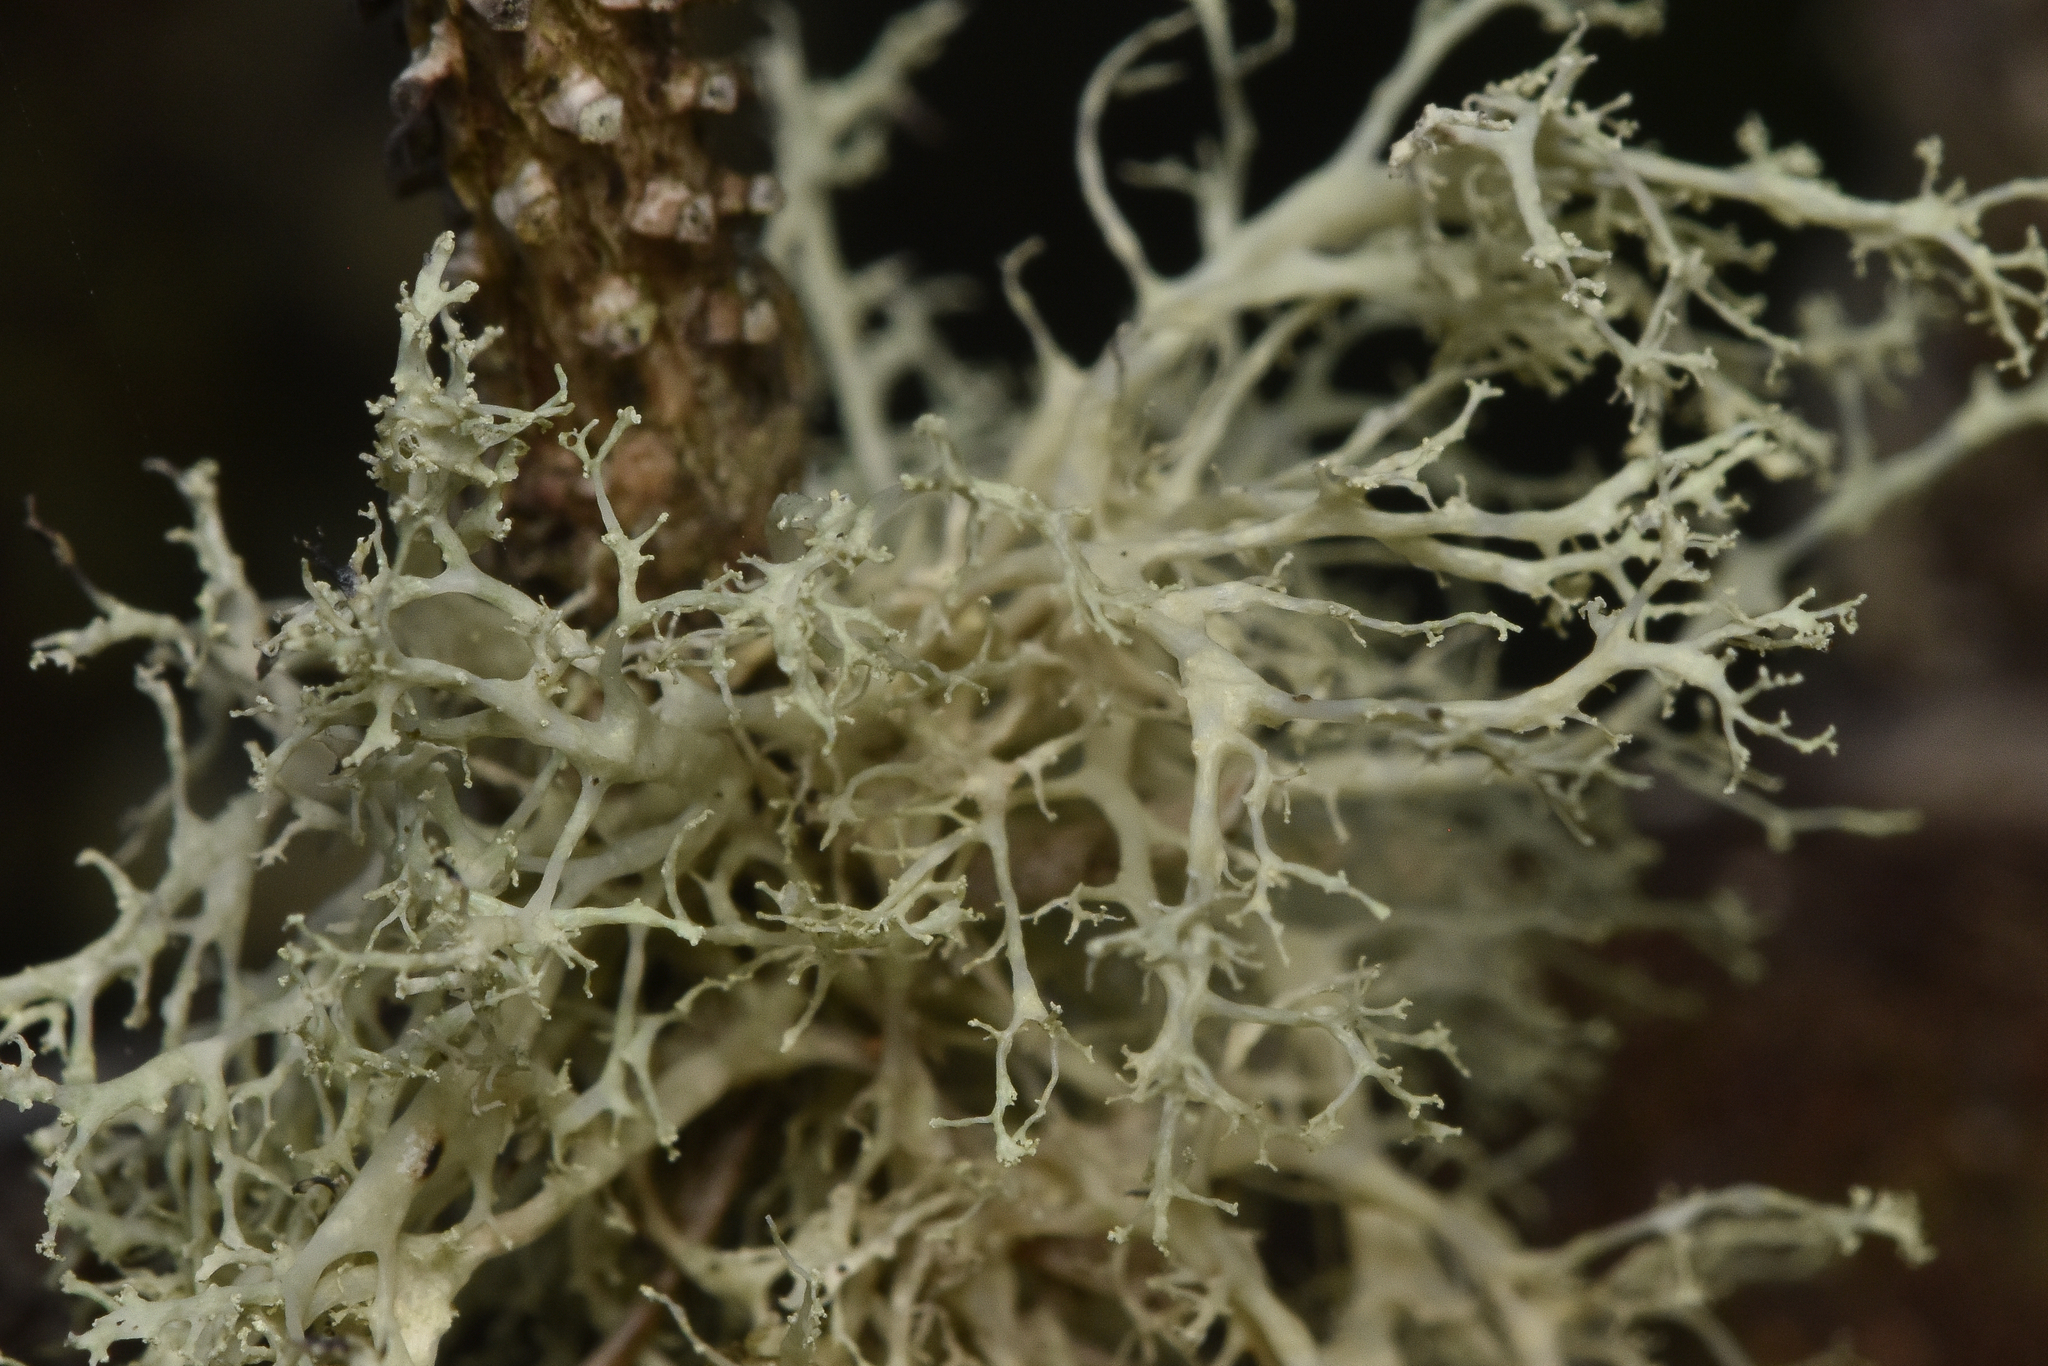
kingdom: Fungi
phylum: Ascomycota
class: Lecanoromycetes
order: Lecanorales
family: Ramalinaceae
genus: Ramalina
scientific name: Ramalina roesleri
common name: Frayed ribbon lichen
